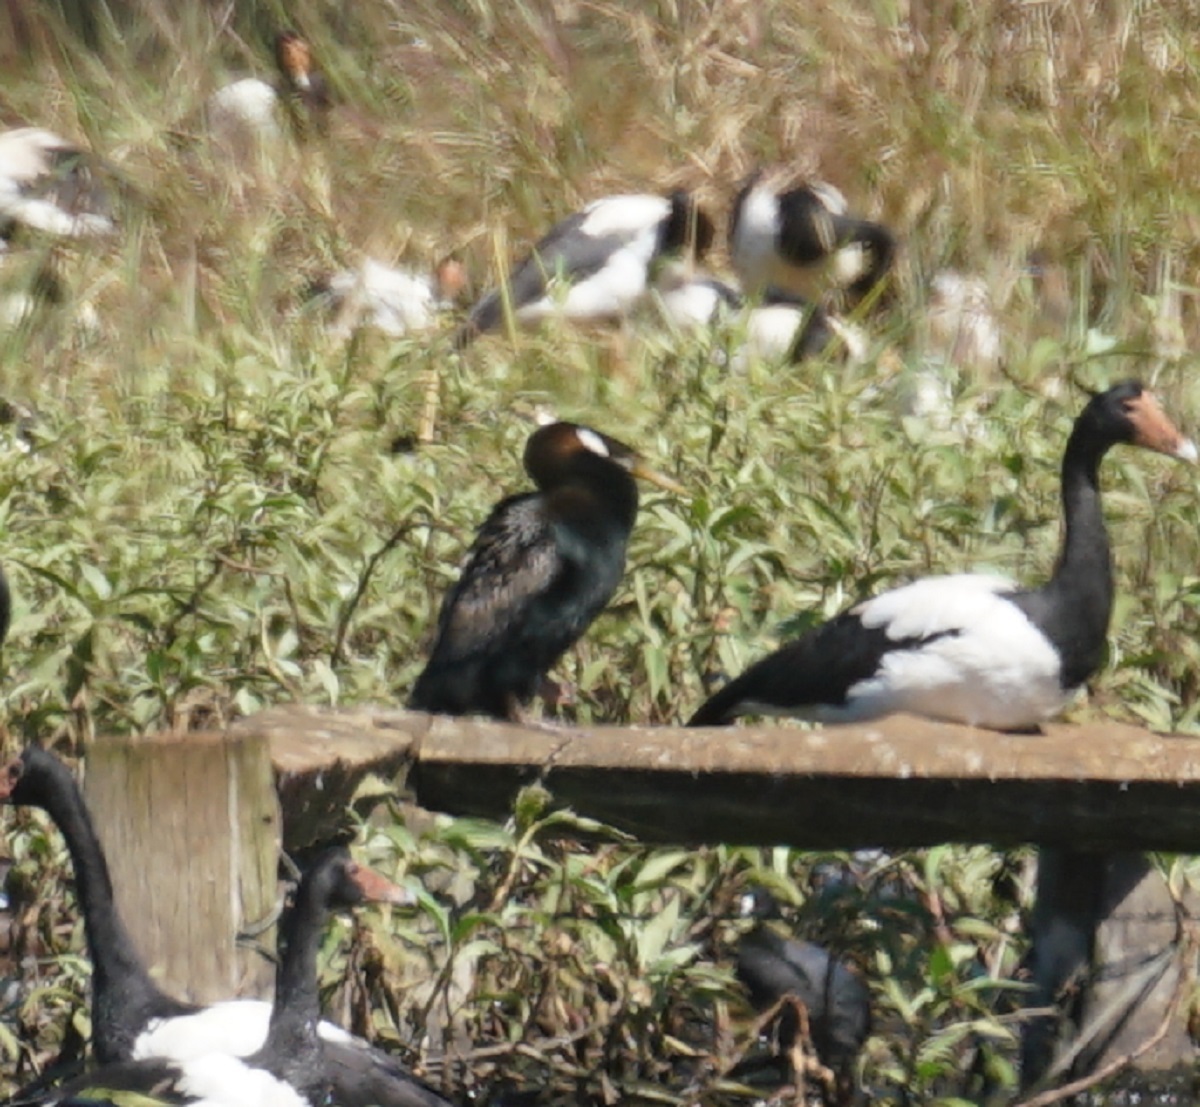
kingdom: Animalia
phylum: Chordata
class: Aves
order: Suliformes
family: Anhingidae
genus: Anhinga
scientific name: Anhinga novaehollandiae
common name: Australasian darter
